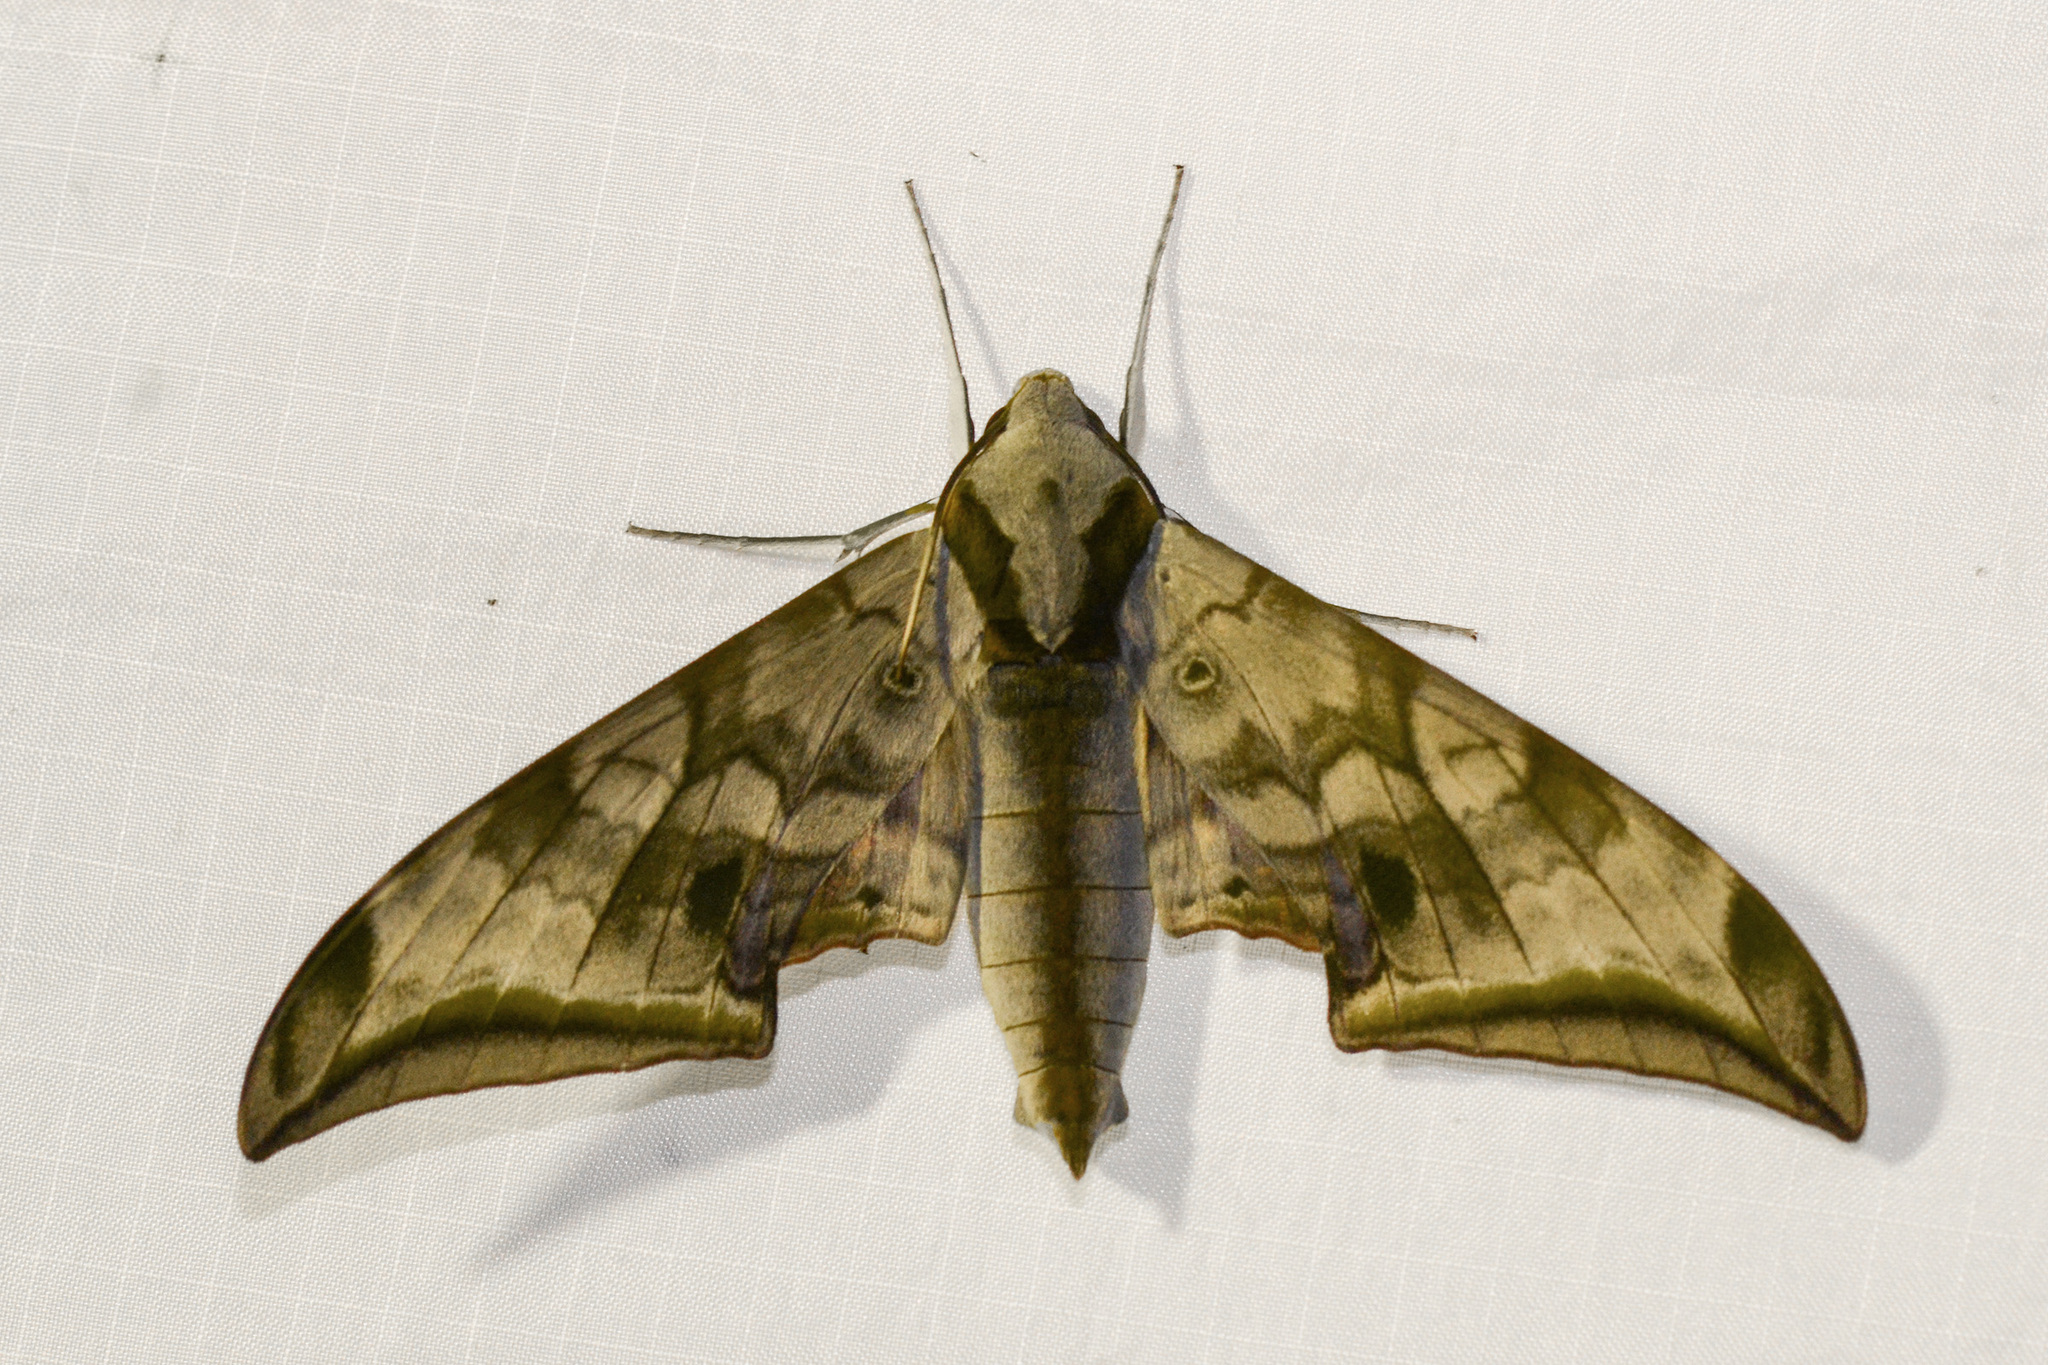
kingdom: Animalia
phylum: Arthropoda
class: Insecta
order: Lepidoptera
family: Sphingidae
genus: Ambulyx
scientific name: Ambulyx immaculata
